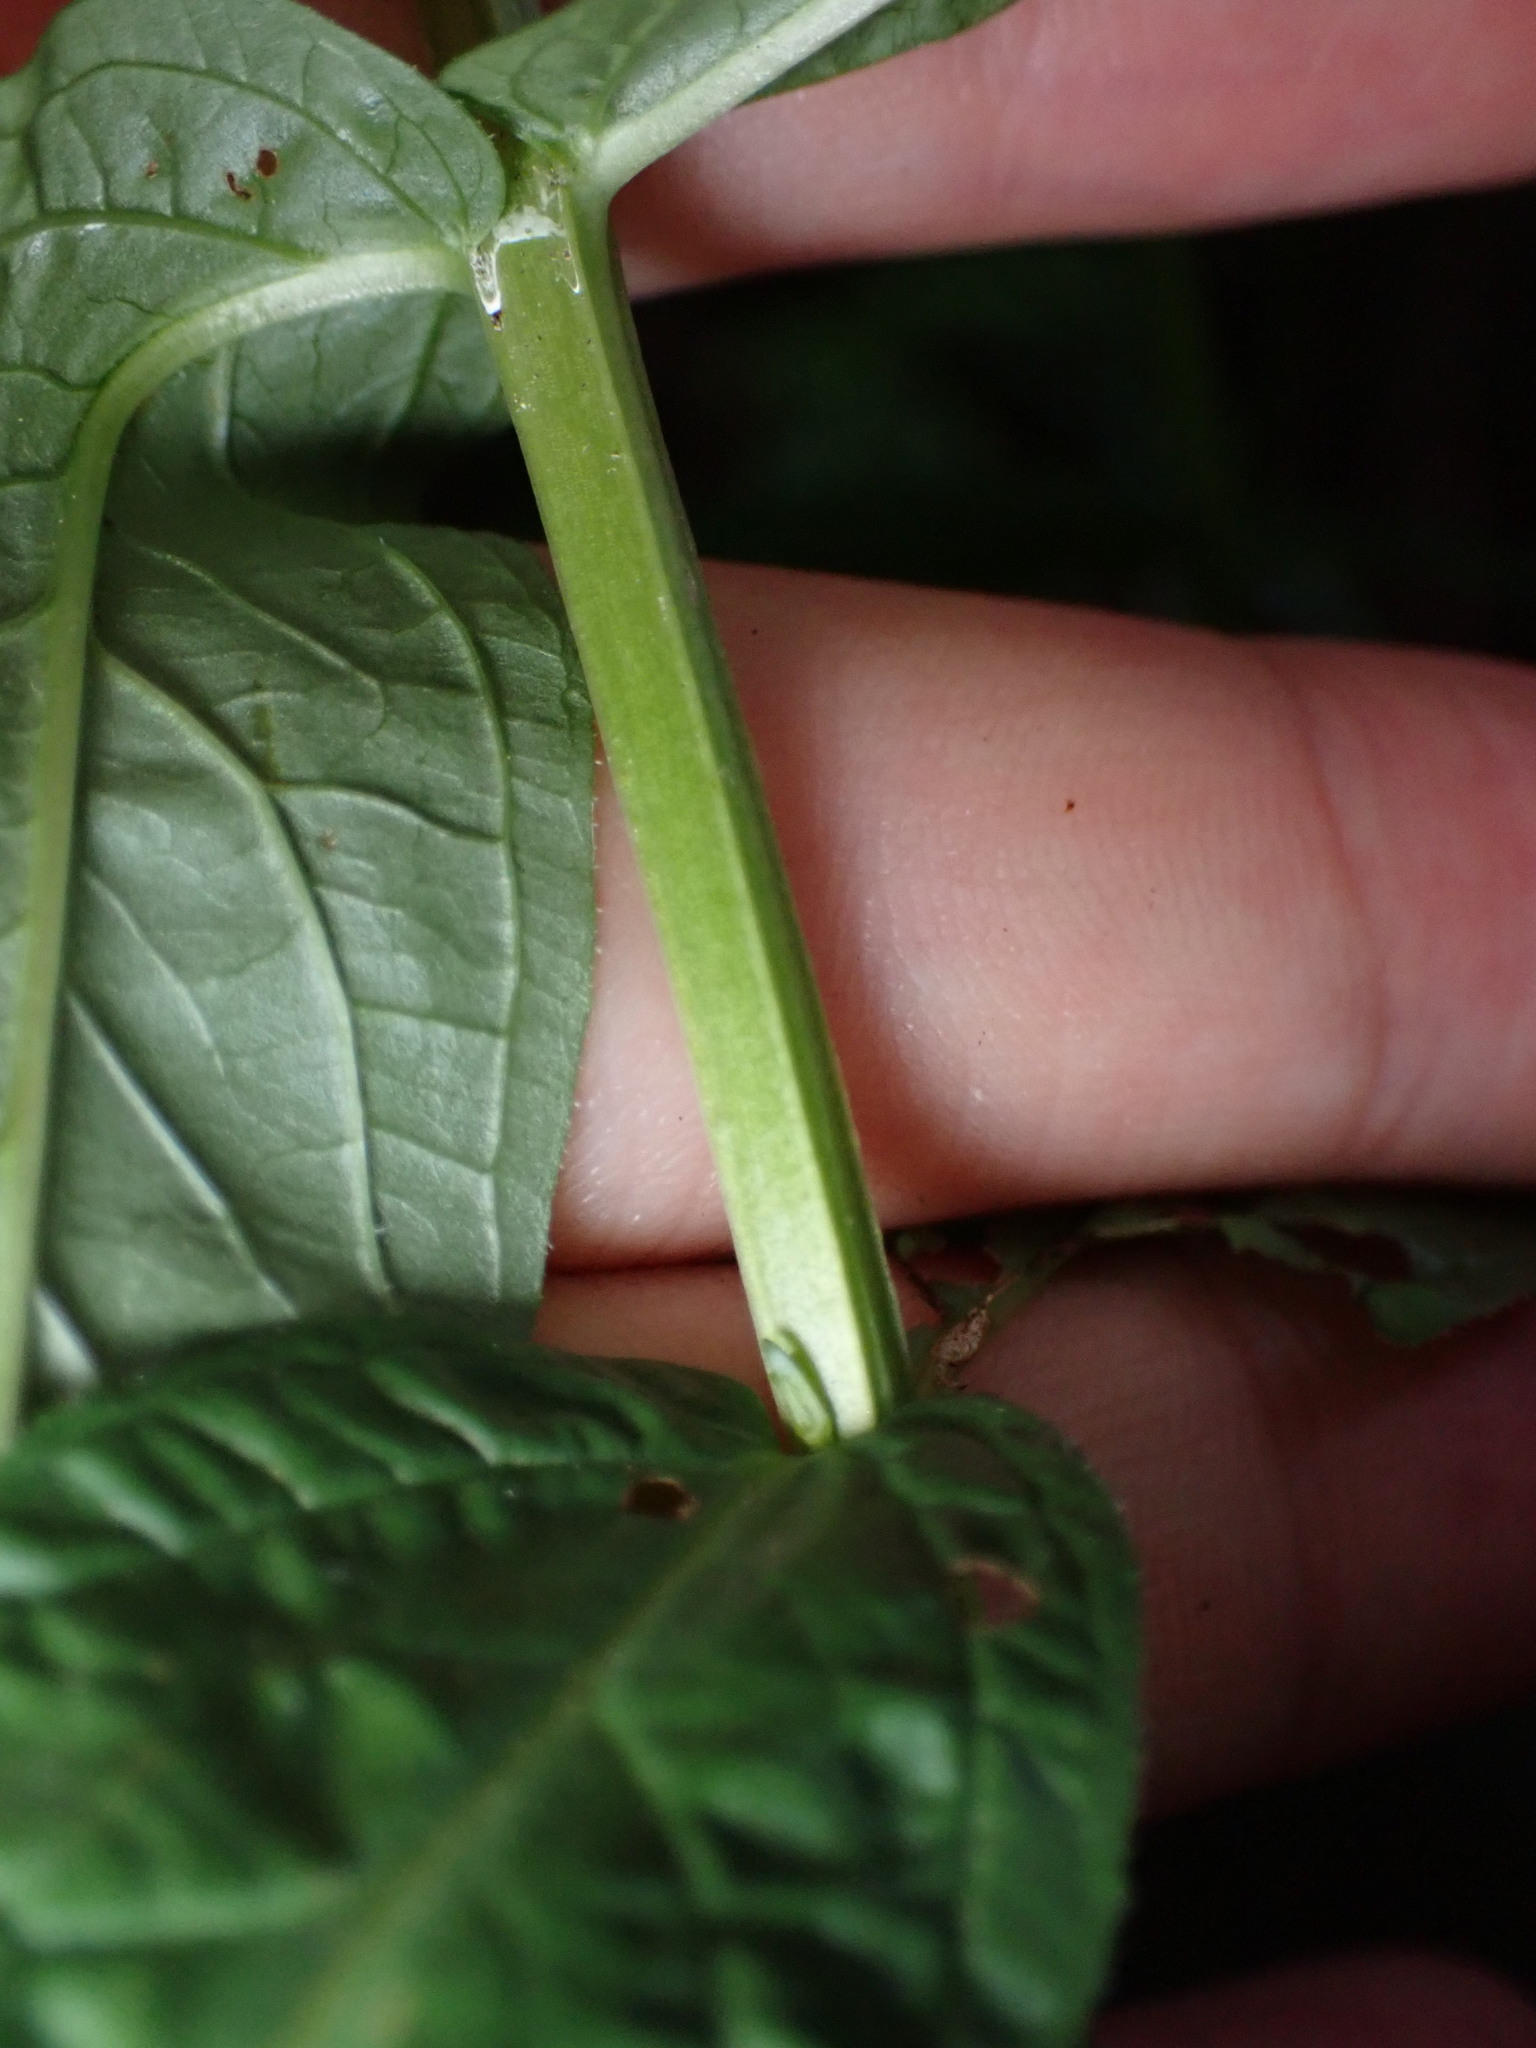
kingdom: Plantae
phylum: Tracheophyta
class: Magnoliopsida
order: Myrtales
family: Lythraceae
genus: Lythrum
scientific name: Lythrum salicaria
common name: Purple loosestrife
